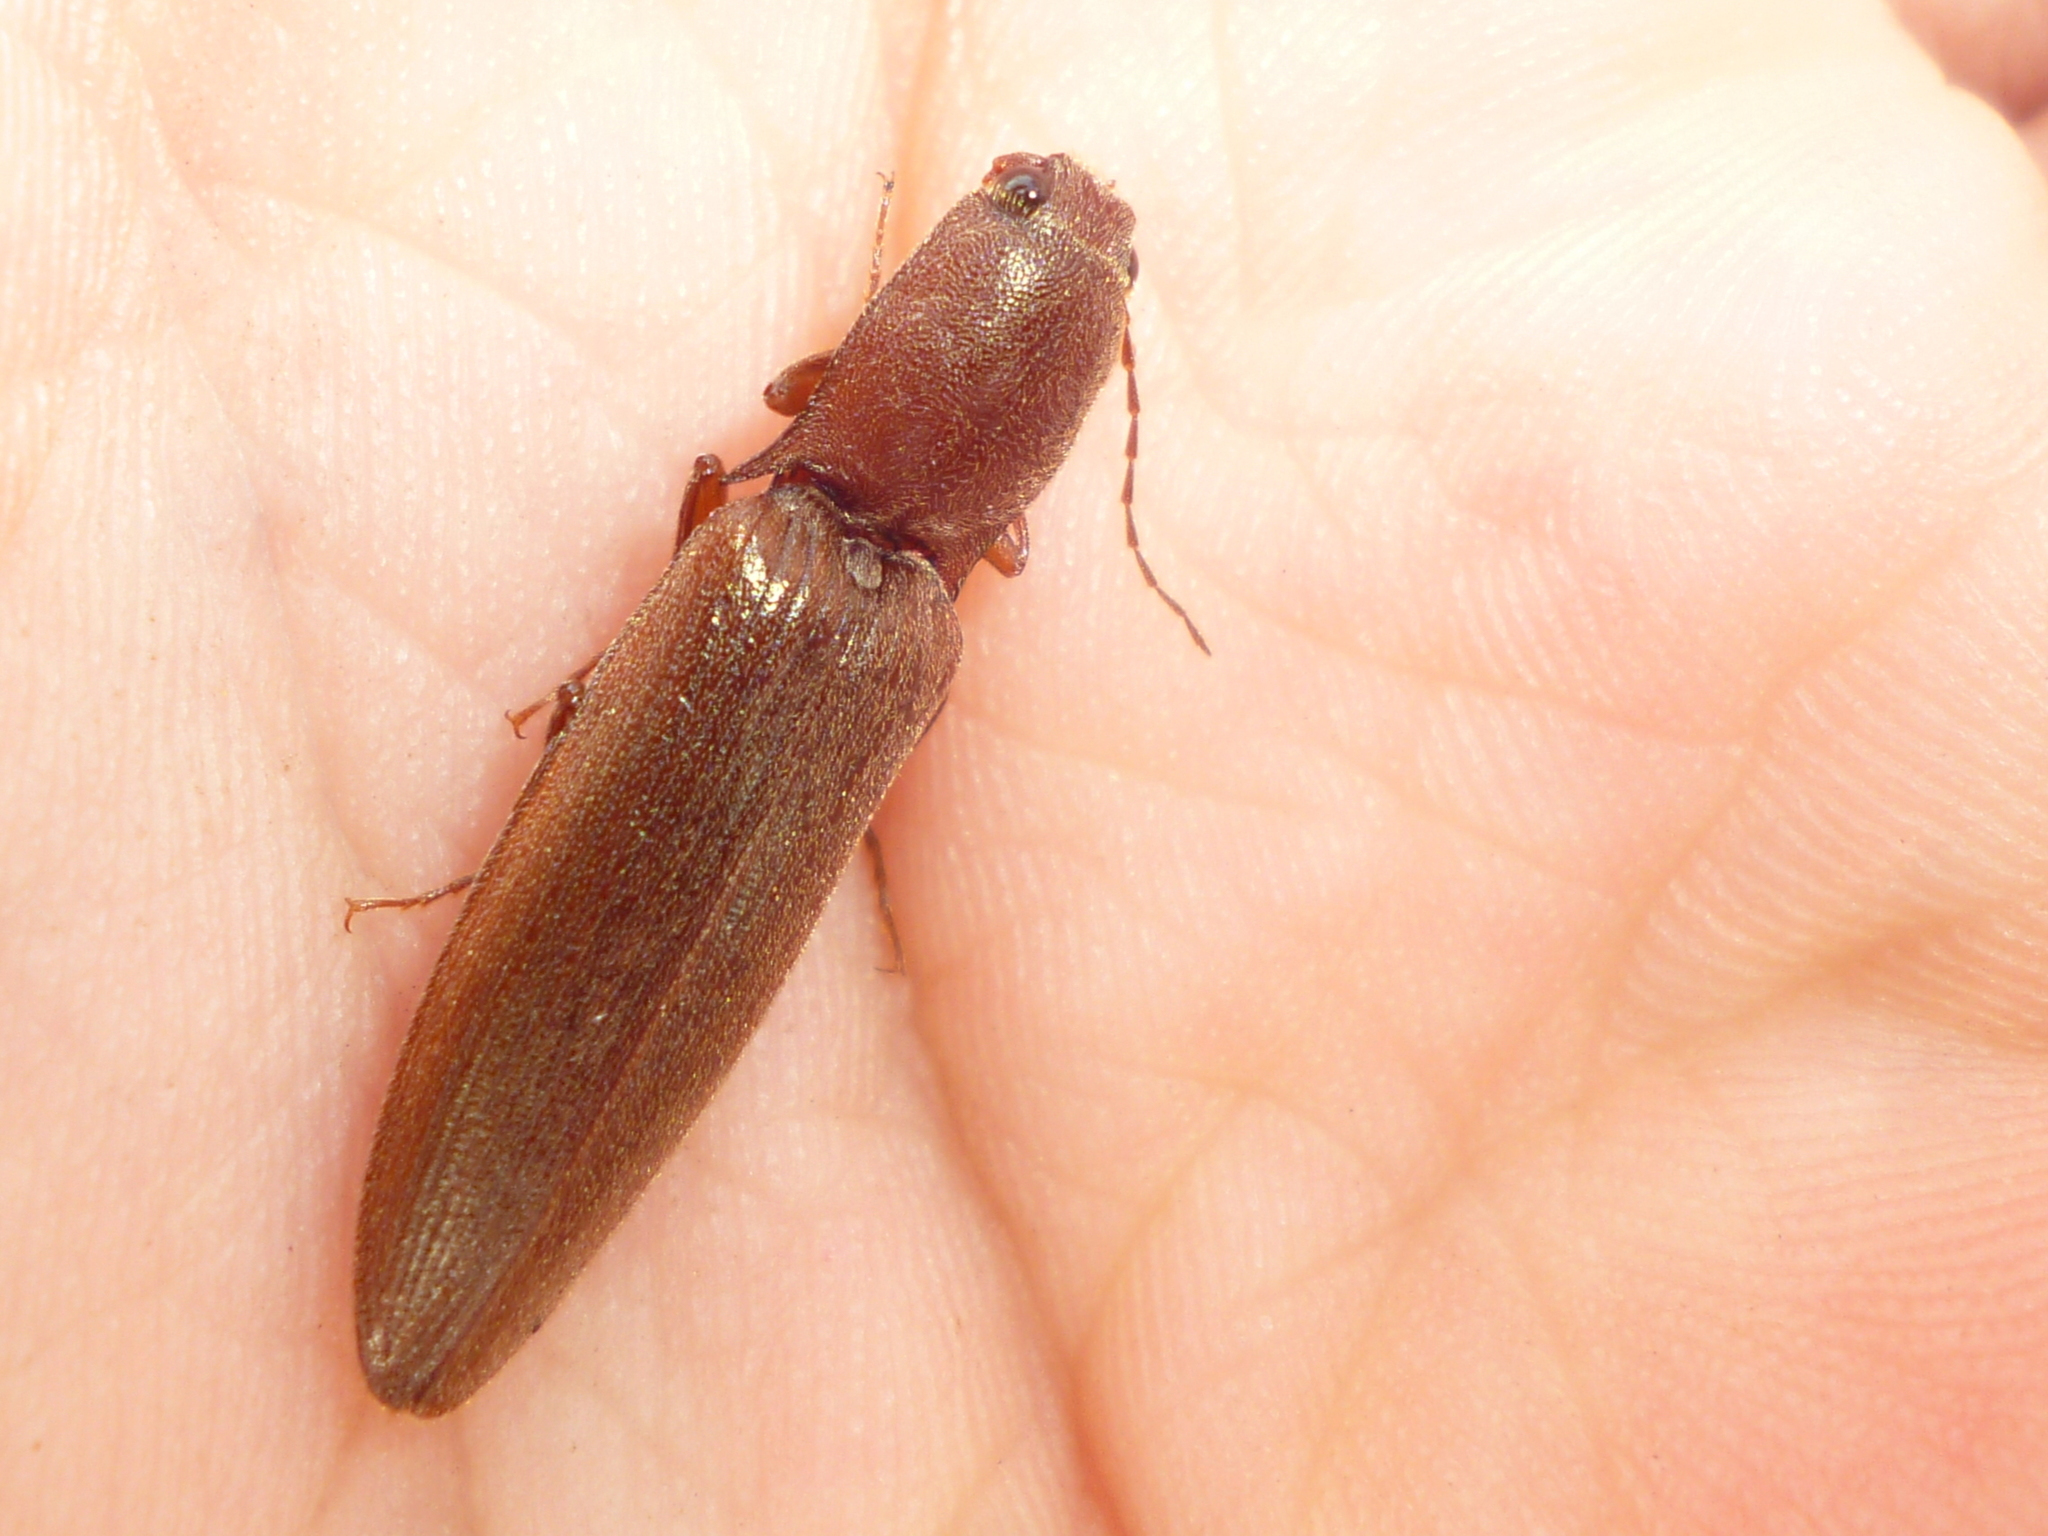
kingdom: Animalia
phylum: Arthropoda
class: Insecta
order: Coleoptera
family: Elateridae
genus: Proludius
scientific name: Proludius pyrros
